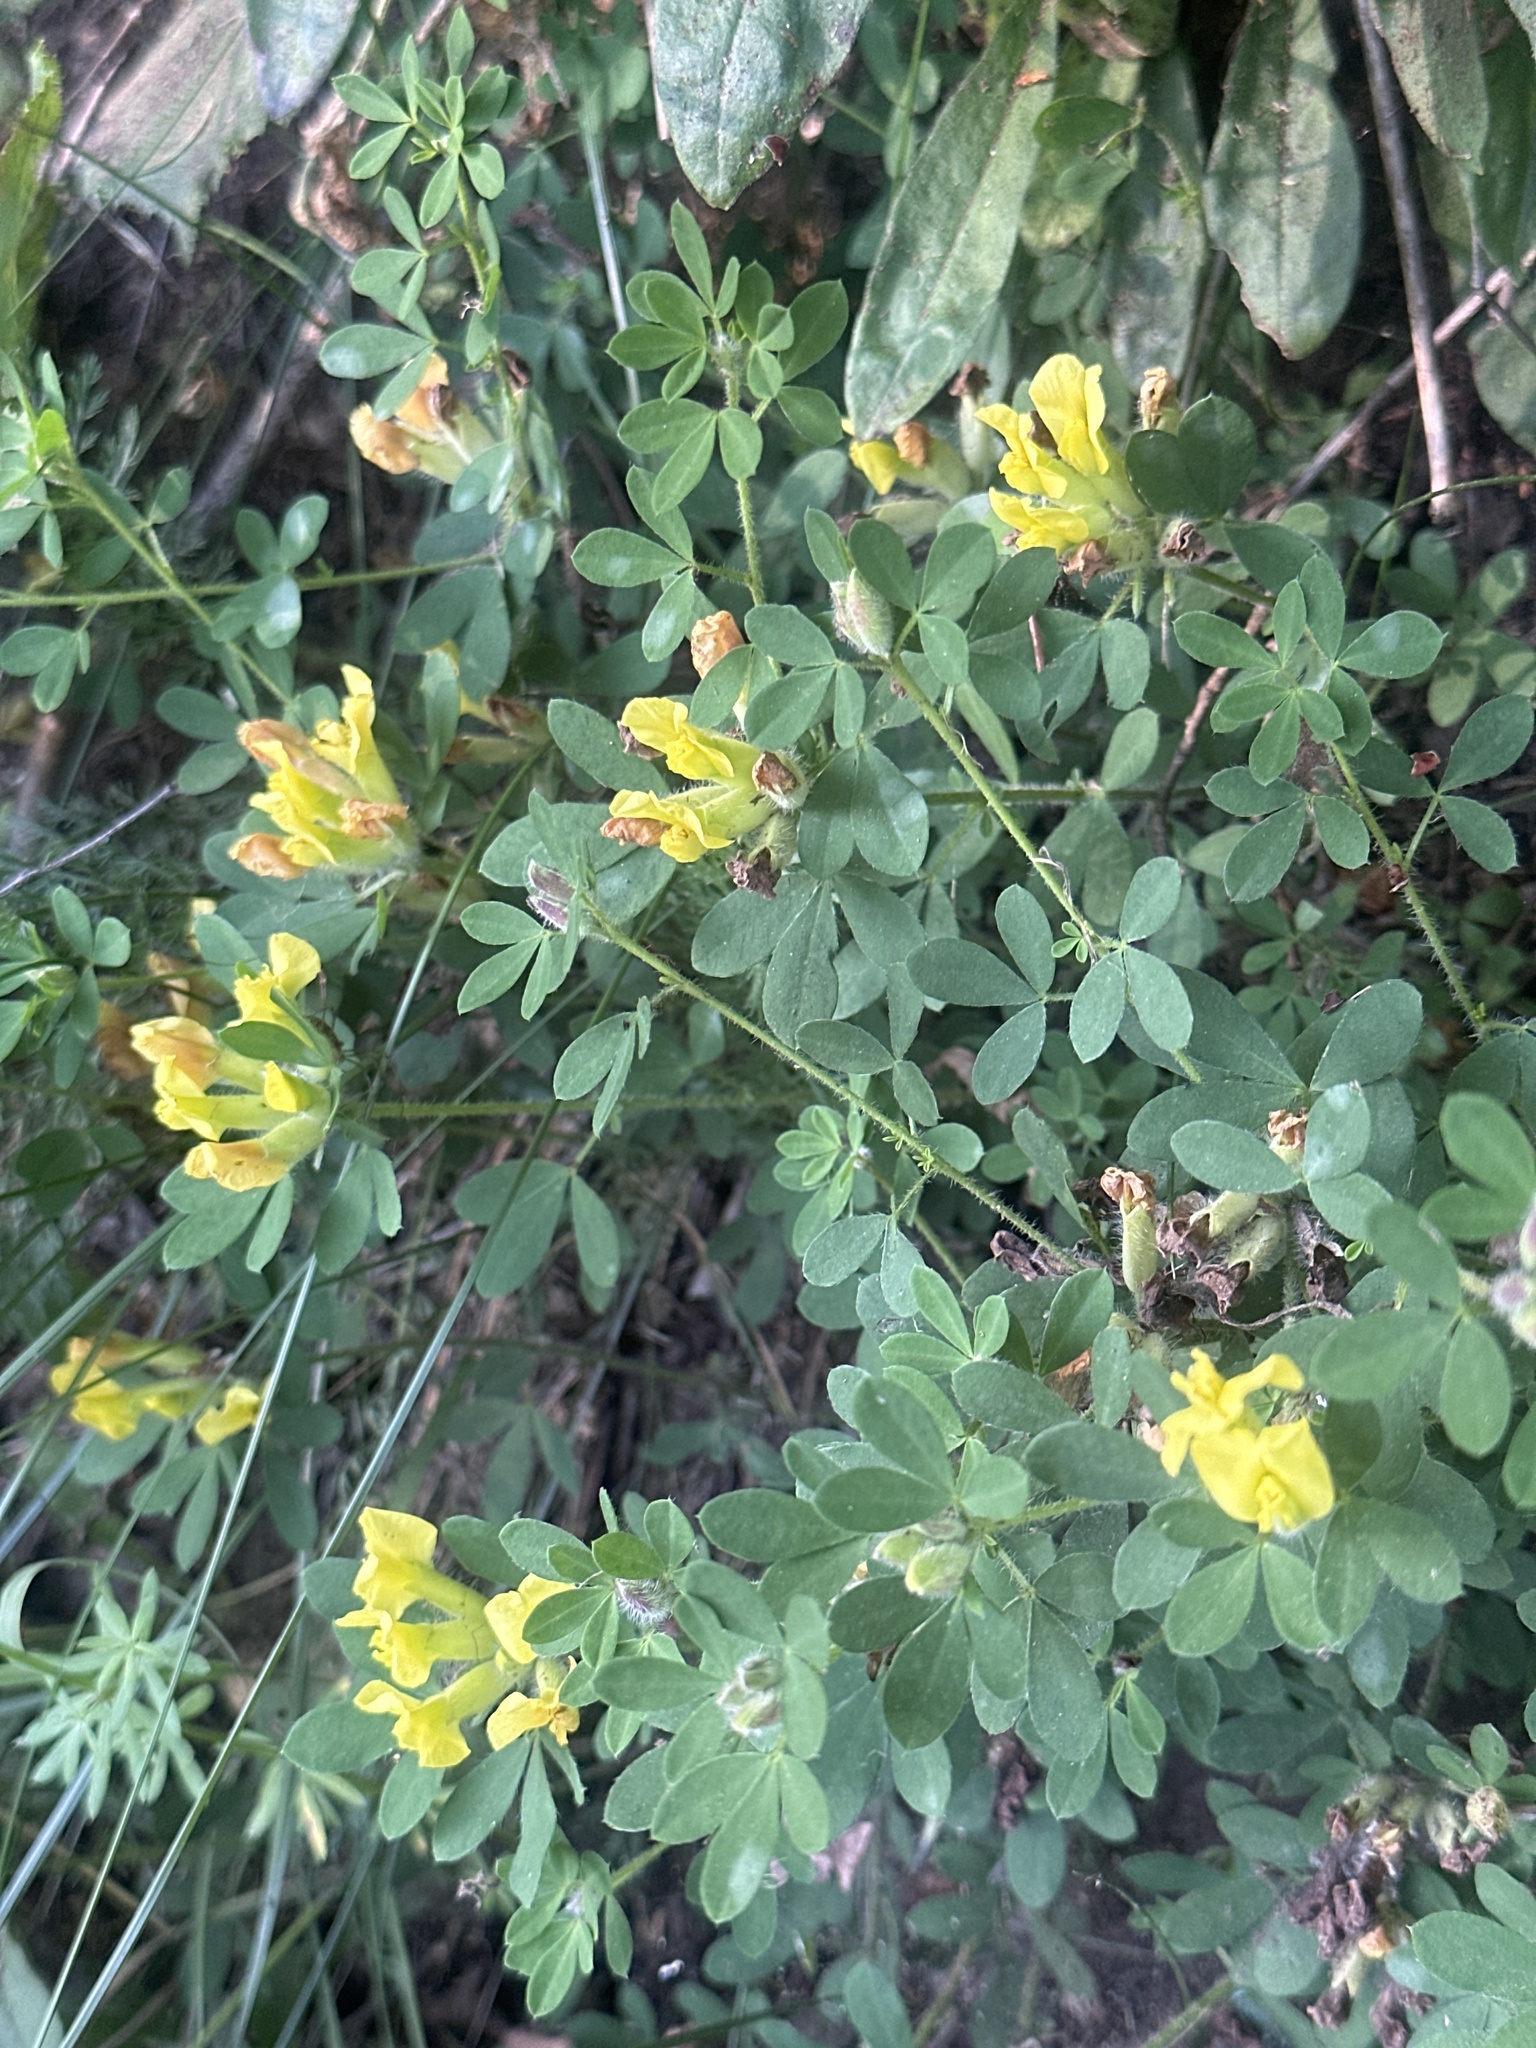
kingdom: Plantae
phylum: Tracheophyta
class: Magnoliopsida
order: Fabales
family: Fabaceae
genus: Chamaecytisus
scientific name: Chamaecytisus supinus
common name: Clustered broom
